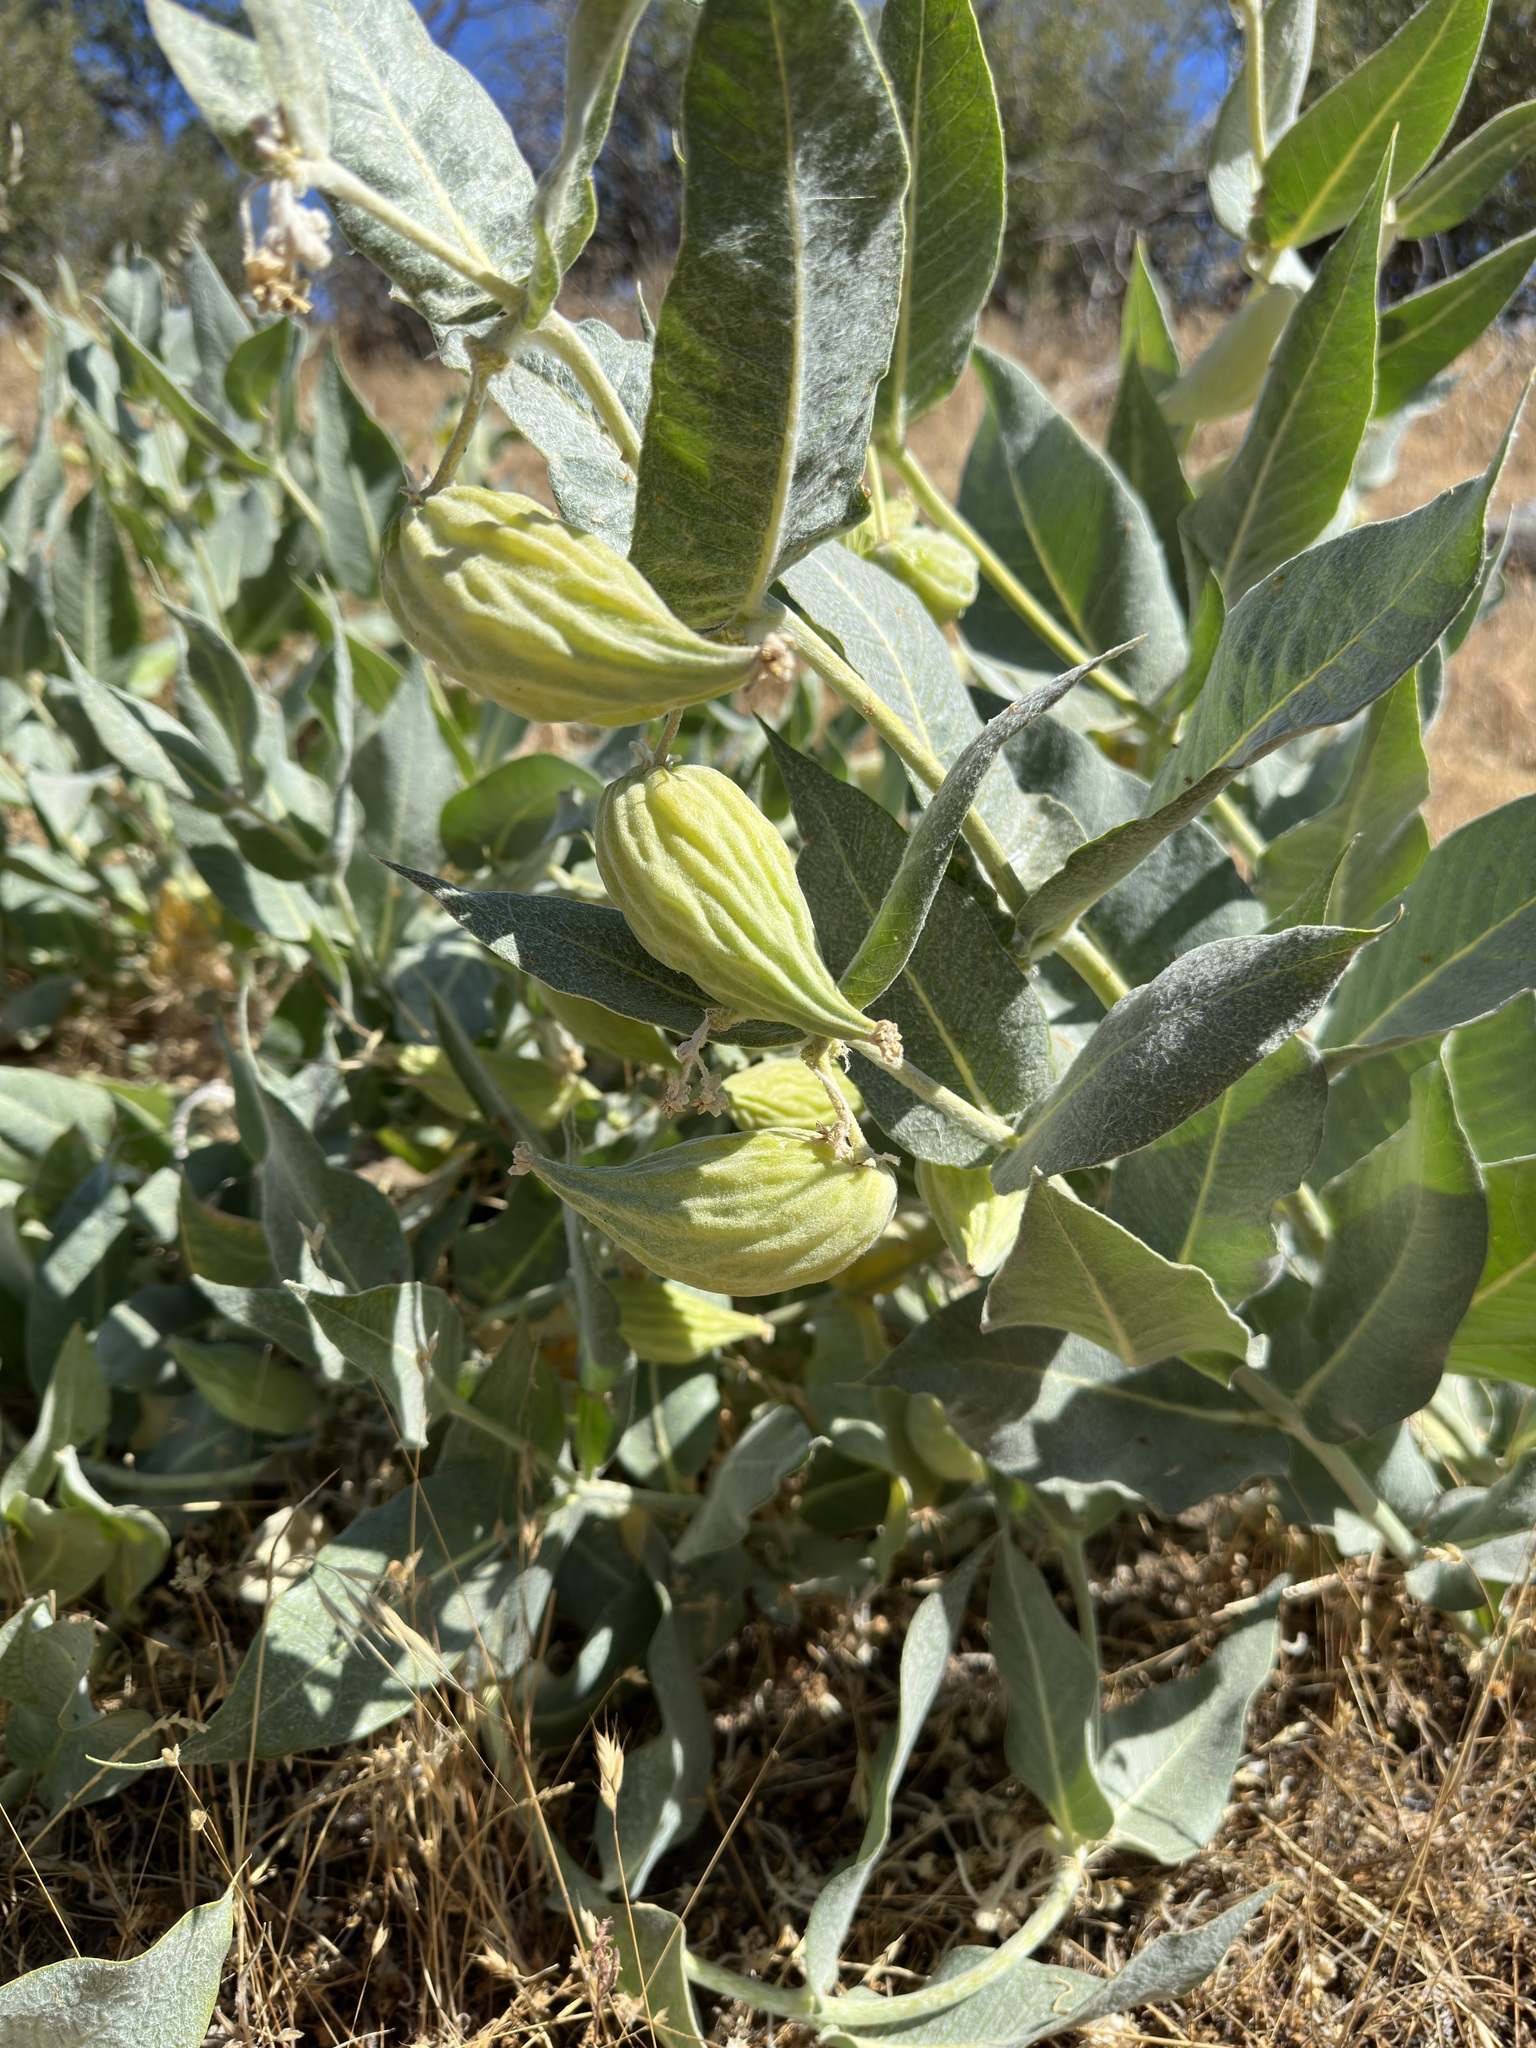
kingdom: Plantae
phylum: Tracheophyta
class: Magnoliopsida
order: Gentianales
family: Apocynaceae
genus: Asclepias
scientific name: Asclepias vestita
